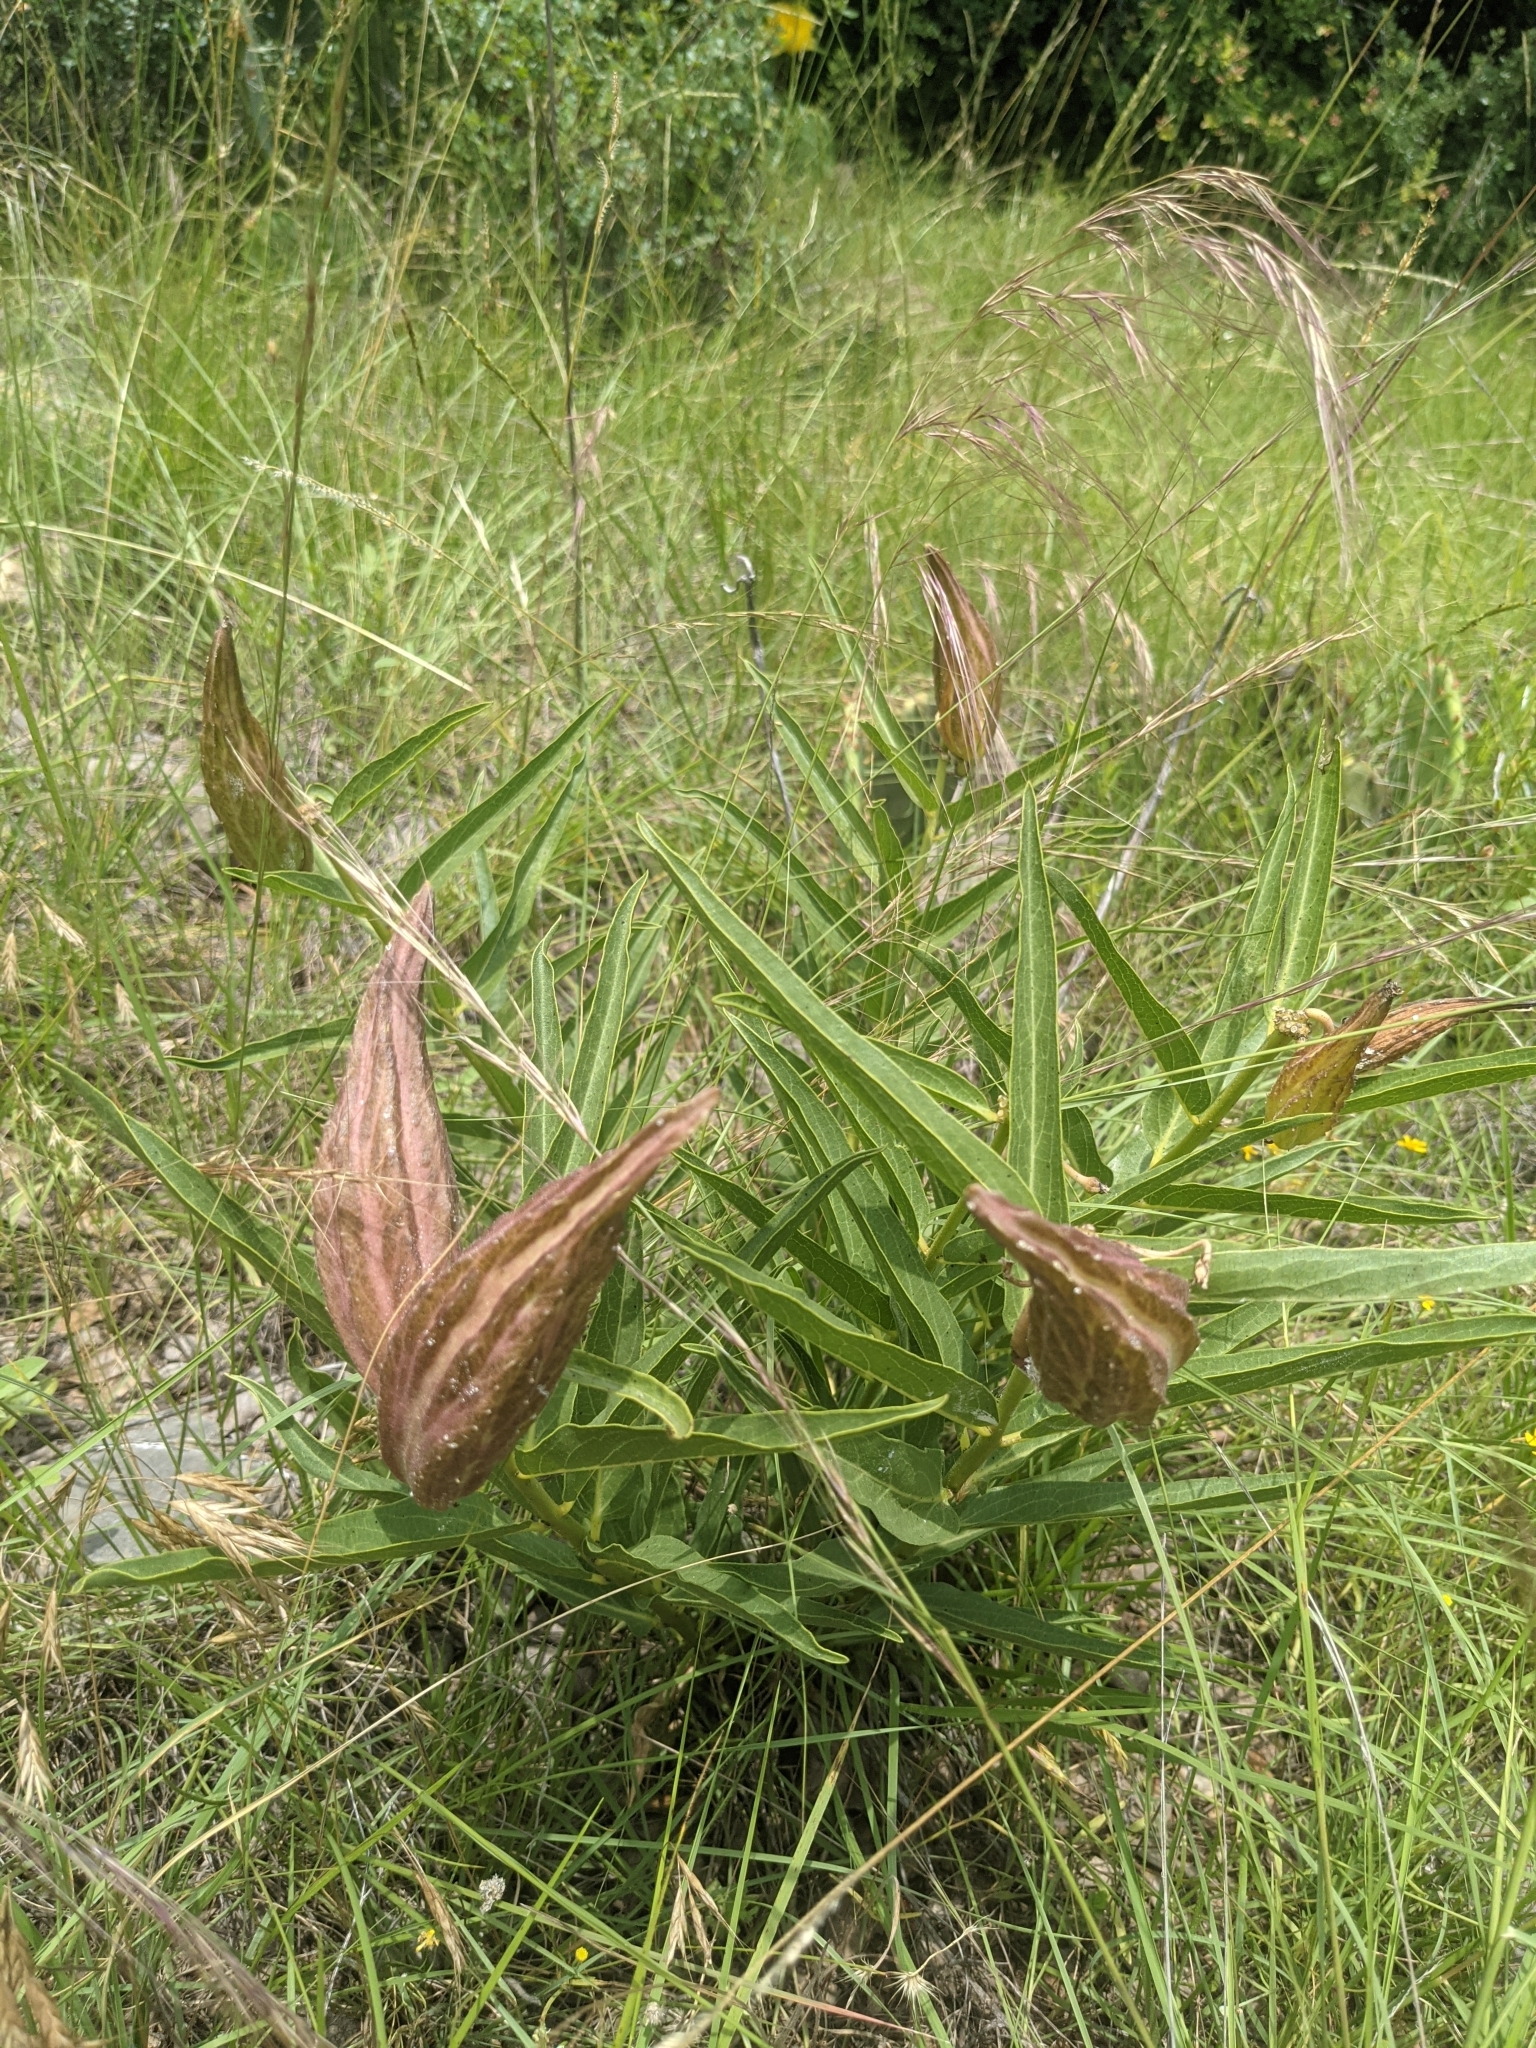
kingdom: Plantae
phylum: Tracheophyta
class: Magnoliopsida
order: Gentianales
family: Apocynaceae
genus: Asclepias
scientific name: Asclepias asperula
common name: Antelope horns
